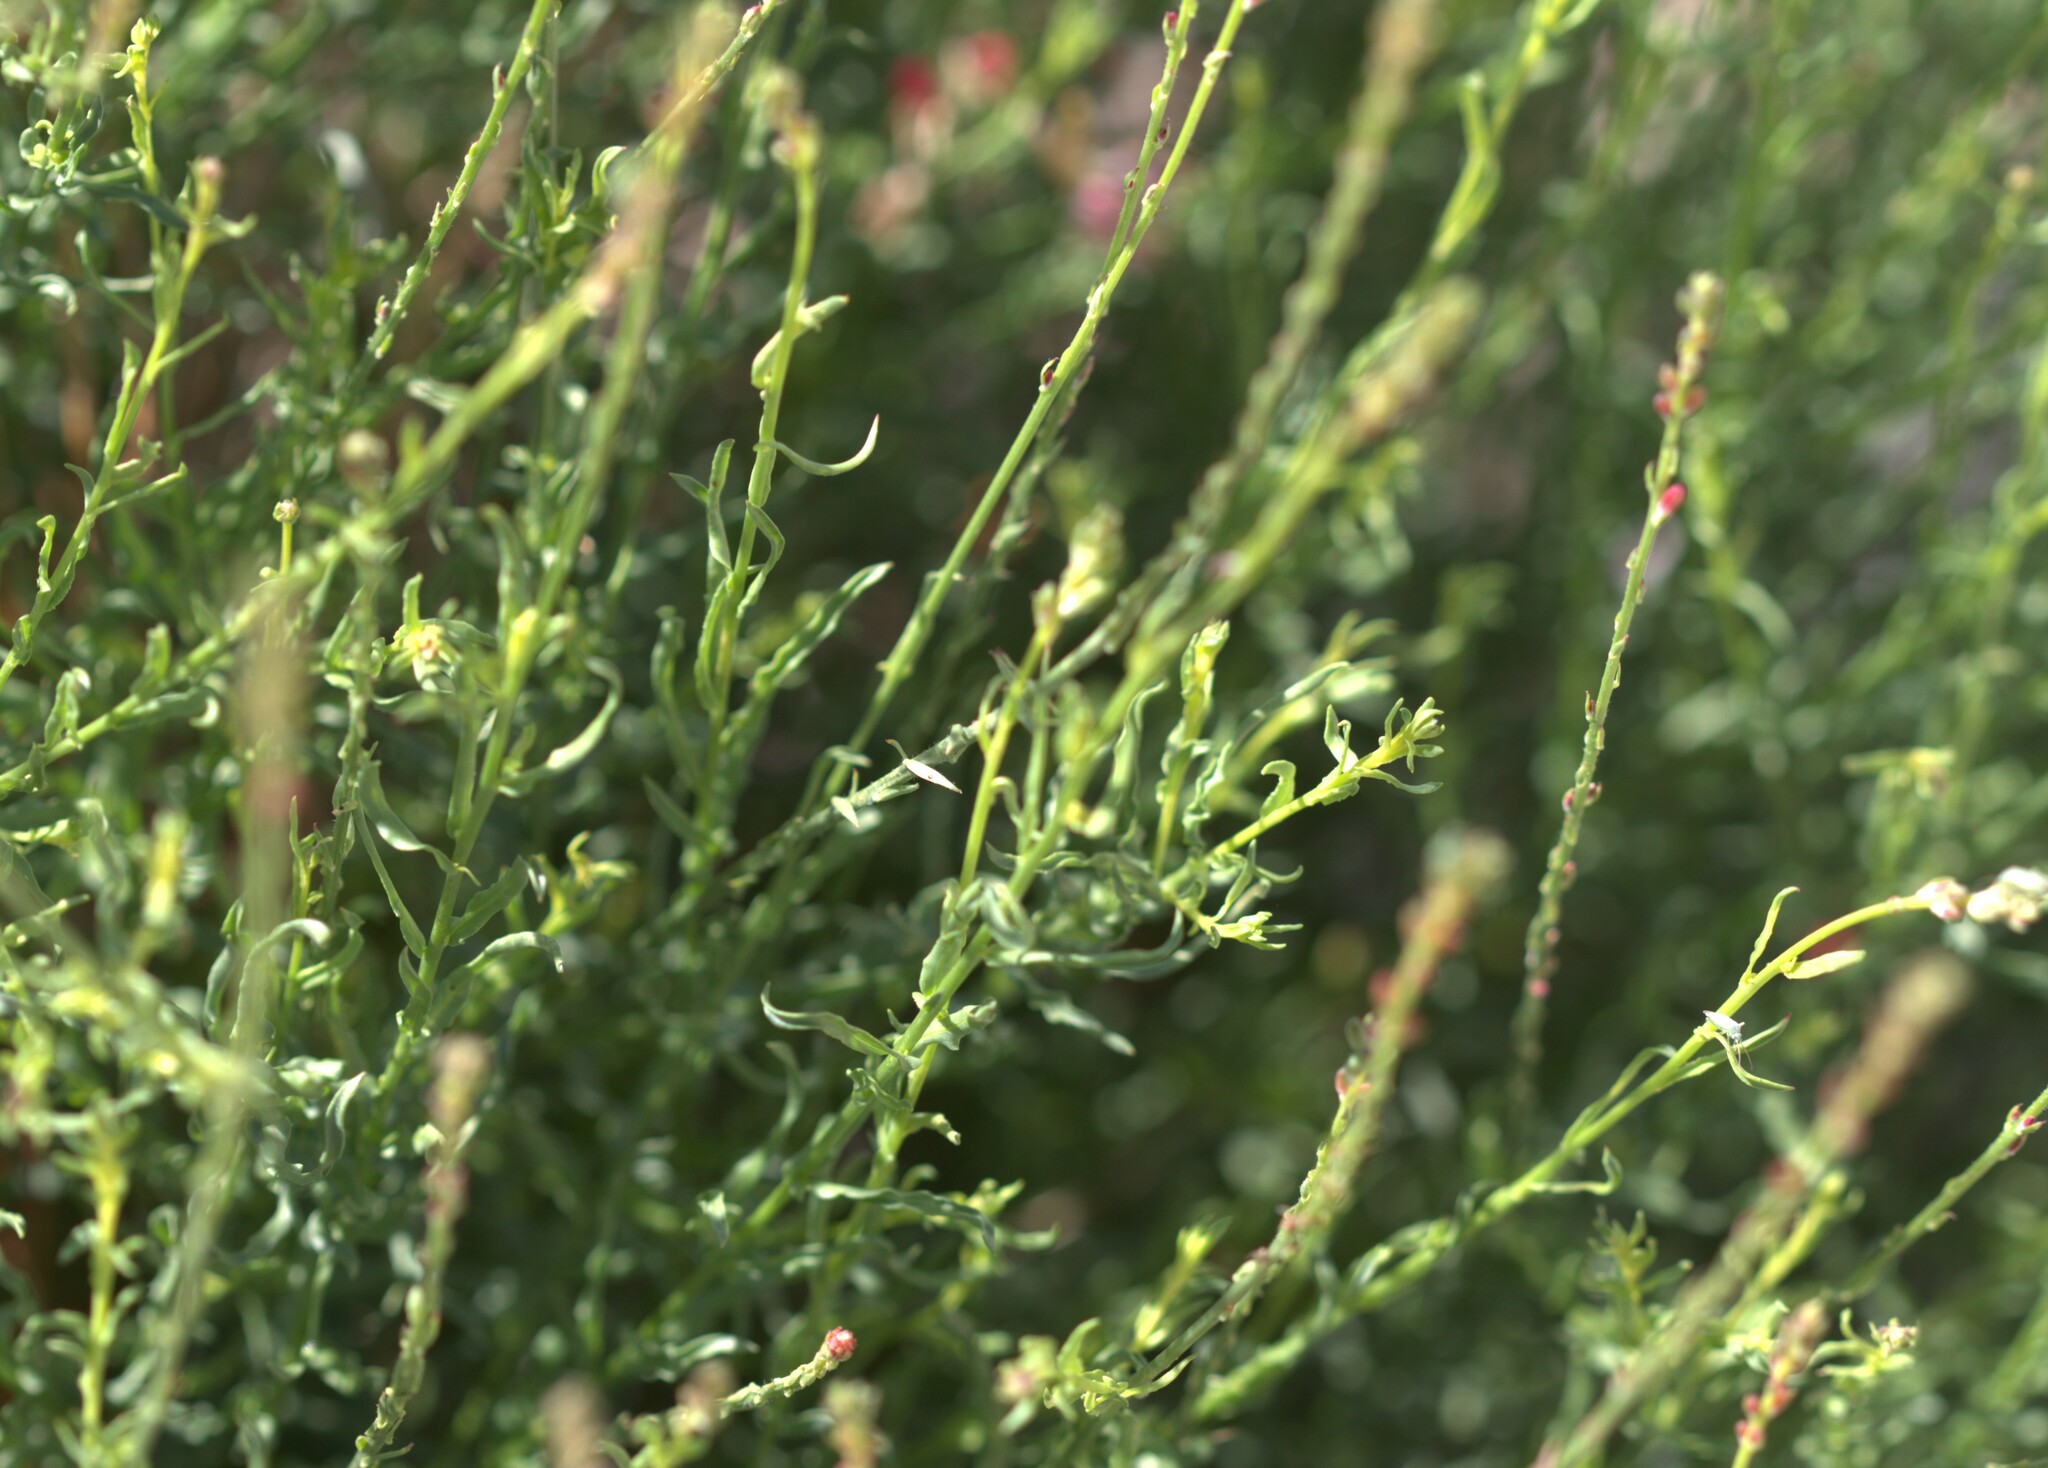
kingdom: Plantae
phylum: Tracheophyta
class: Magnoliopsida
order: Myrtales
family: Onagraceae
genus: Oenothera
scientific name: Oenothera suffrutescens
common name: Scarlet beeblossom
